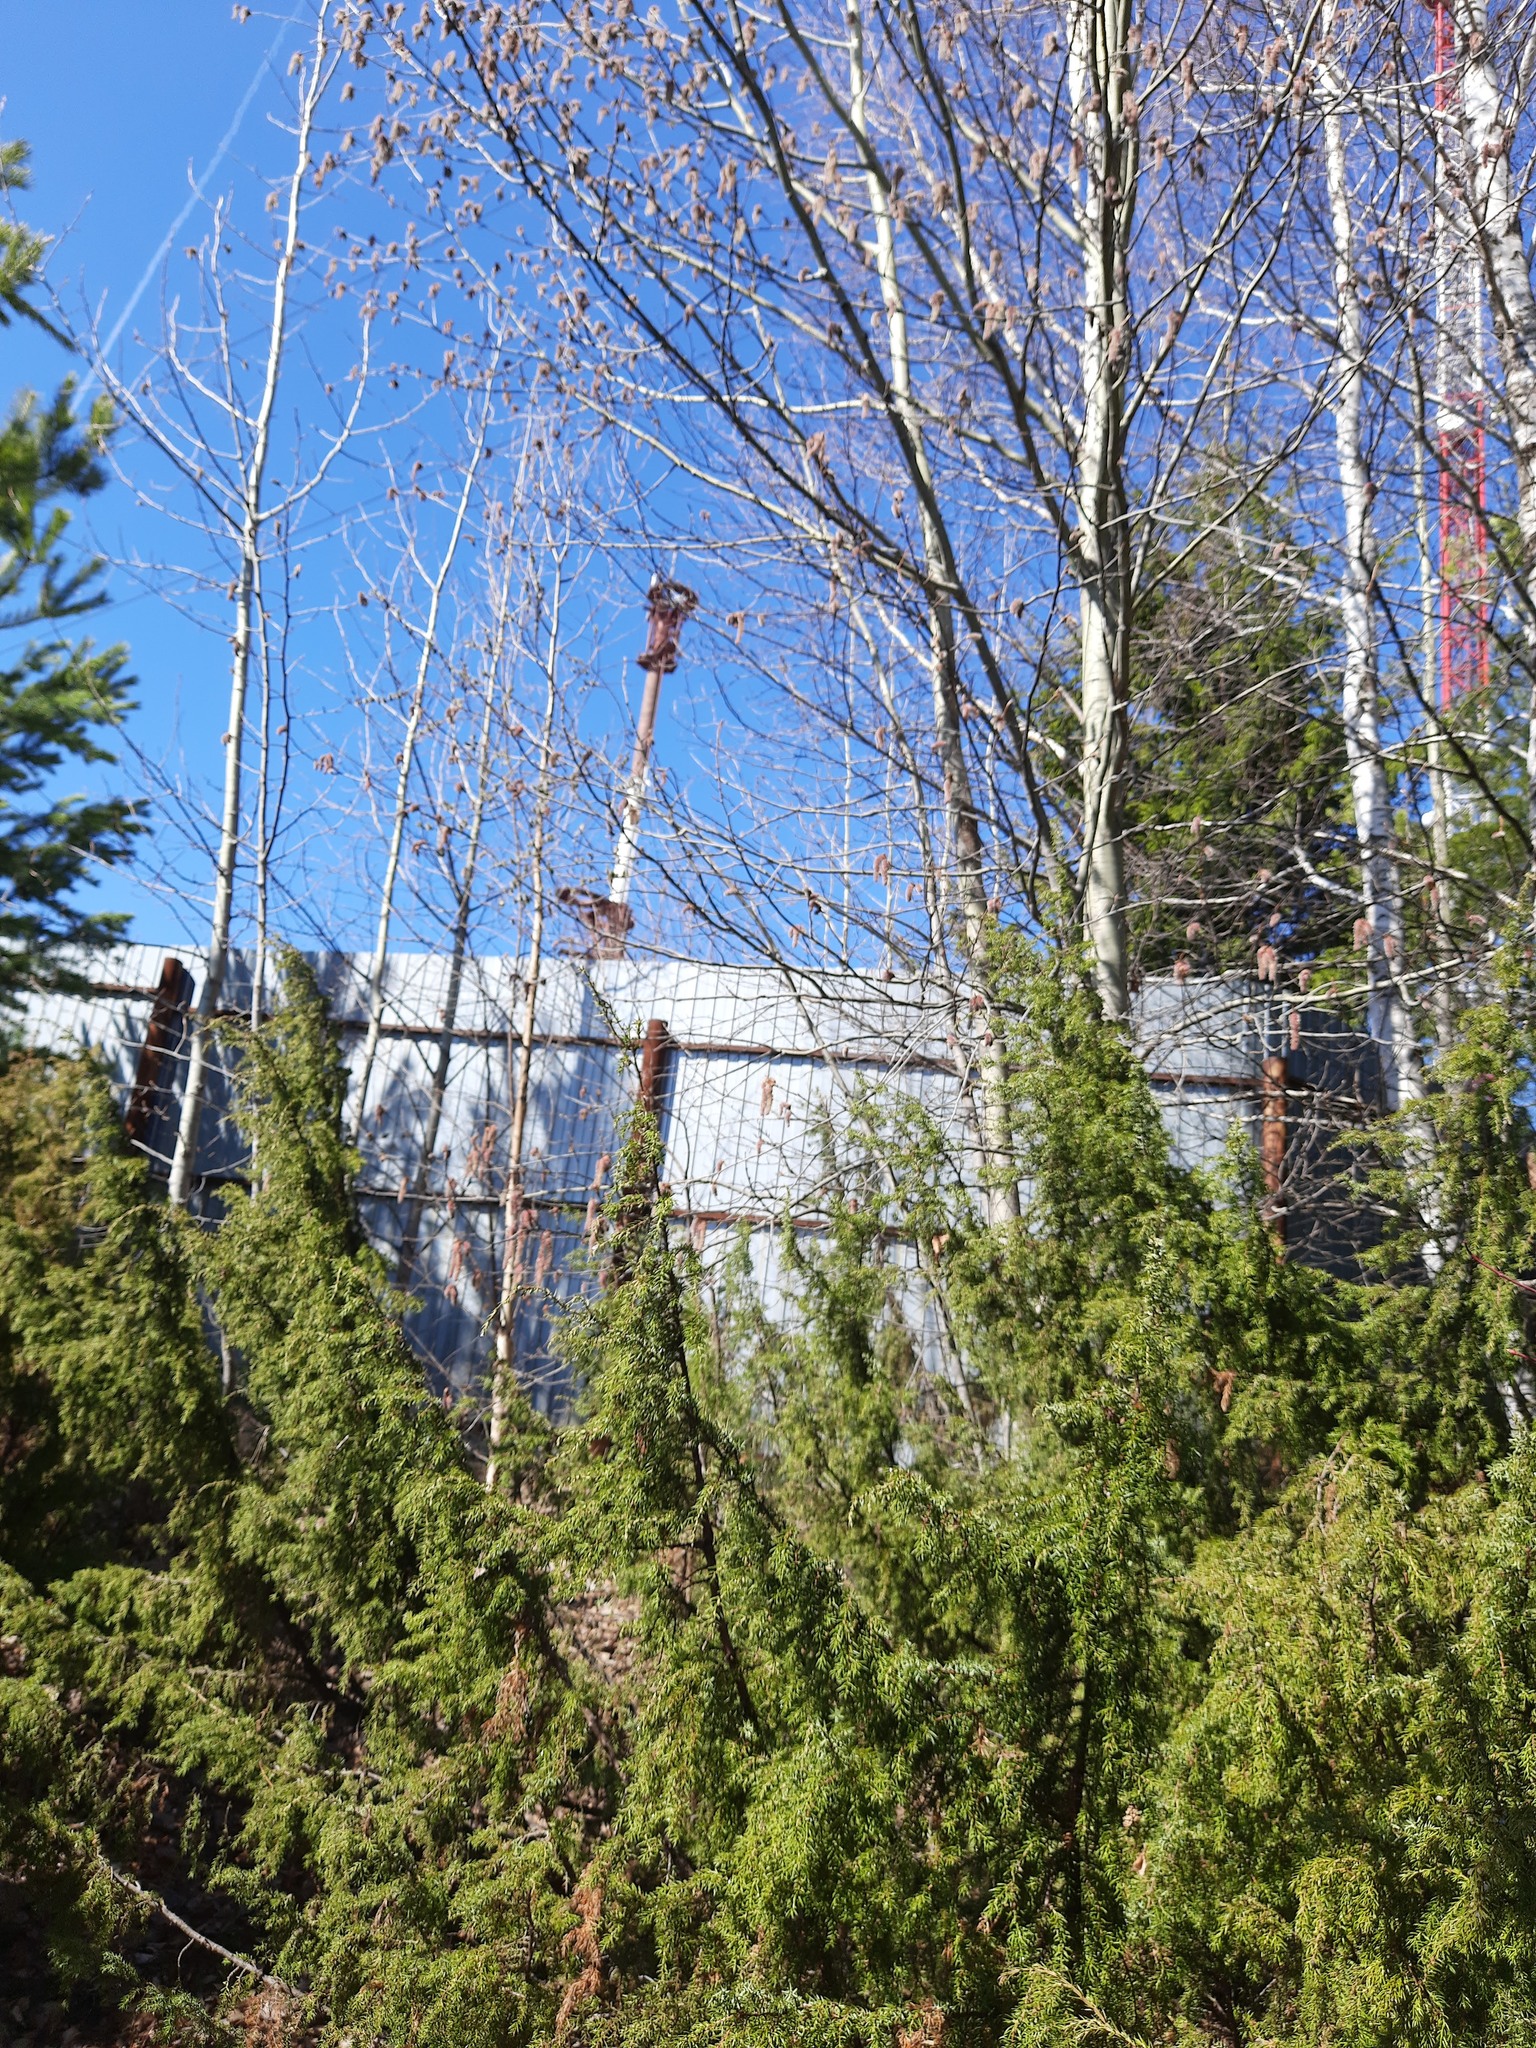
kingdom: Plantae
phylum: Tracheophyta
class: Pinopsida
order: Pinales
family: Cupressaceae
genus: Juniperus
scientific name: Juniperus communis
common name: Common juniper
